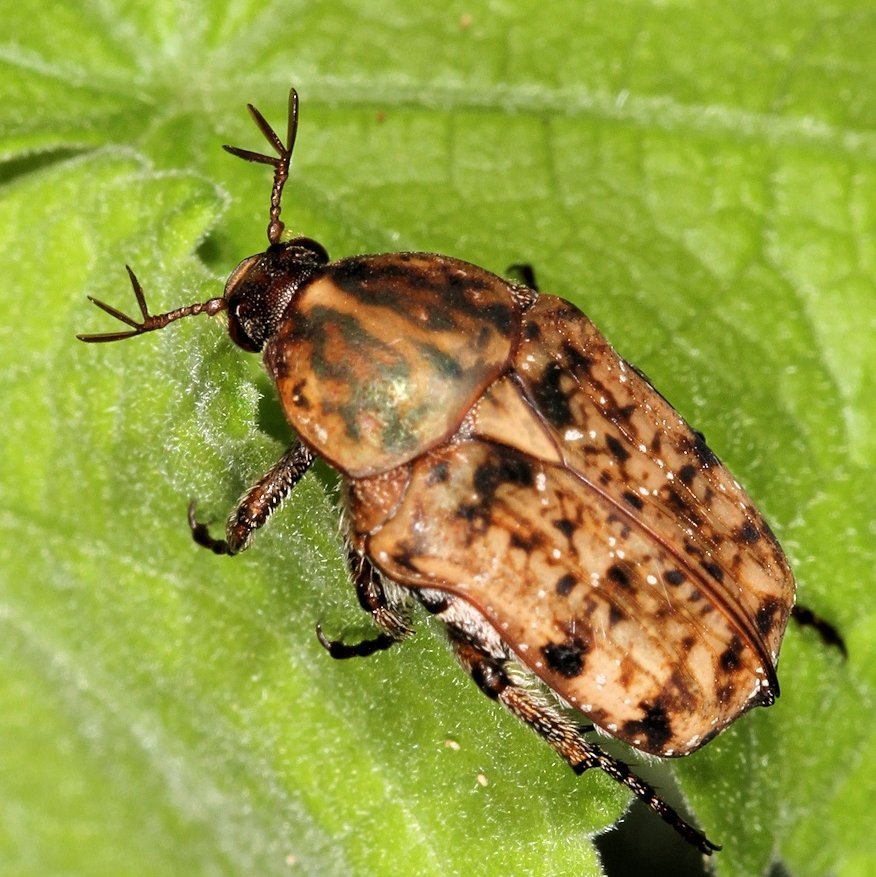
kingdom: Animalia
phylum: Arthropoda
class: Insecta
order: Coleoptera
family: Scarabaeidae
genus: Niphetophora
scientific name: Niphetophora carneola
